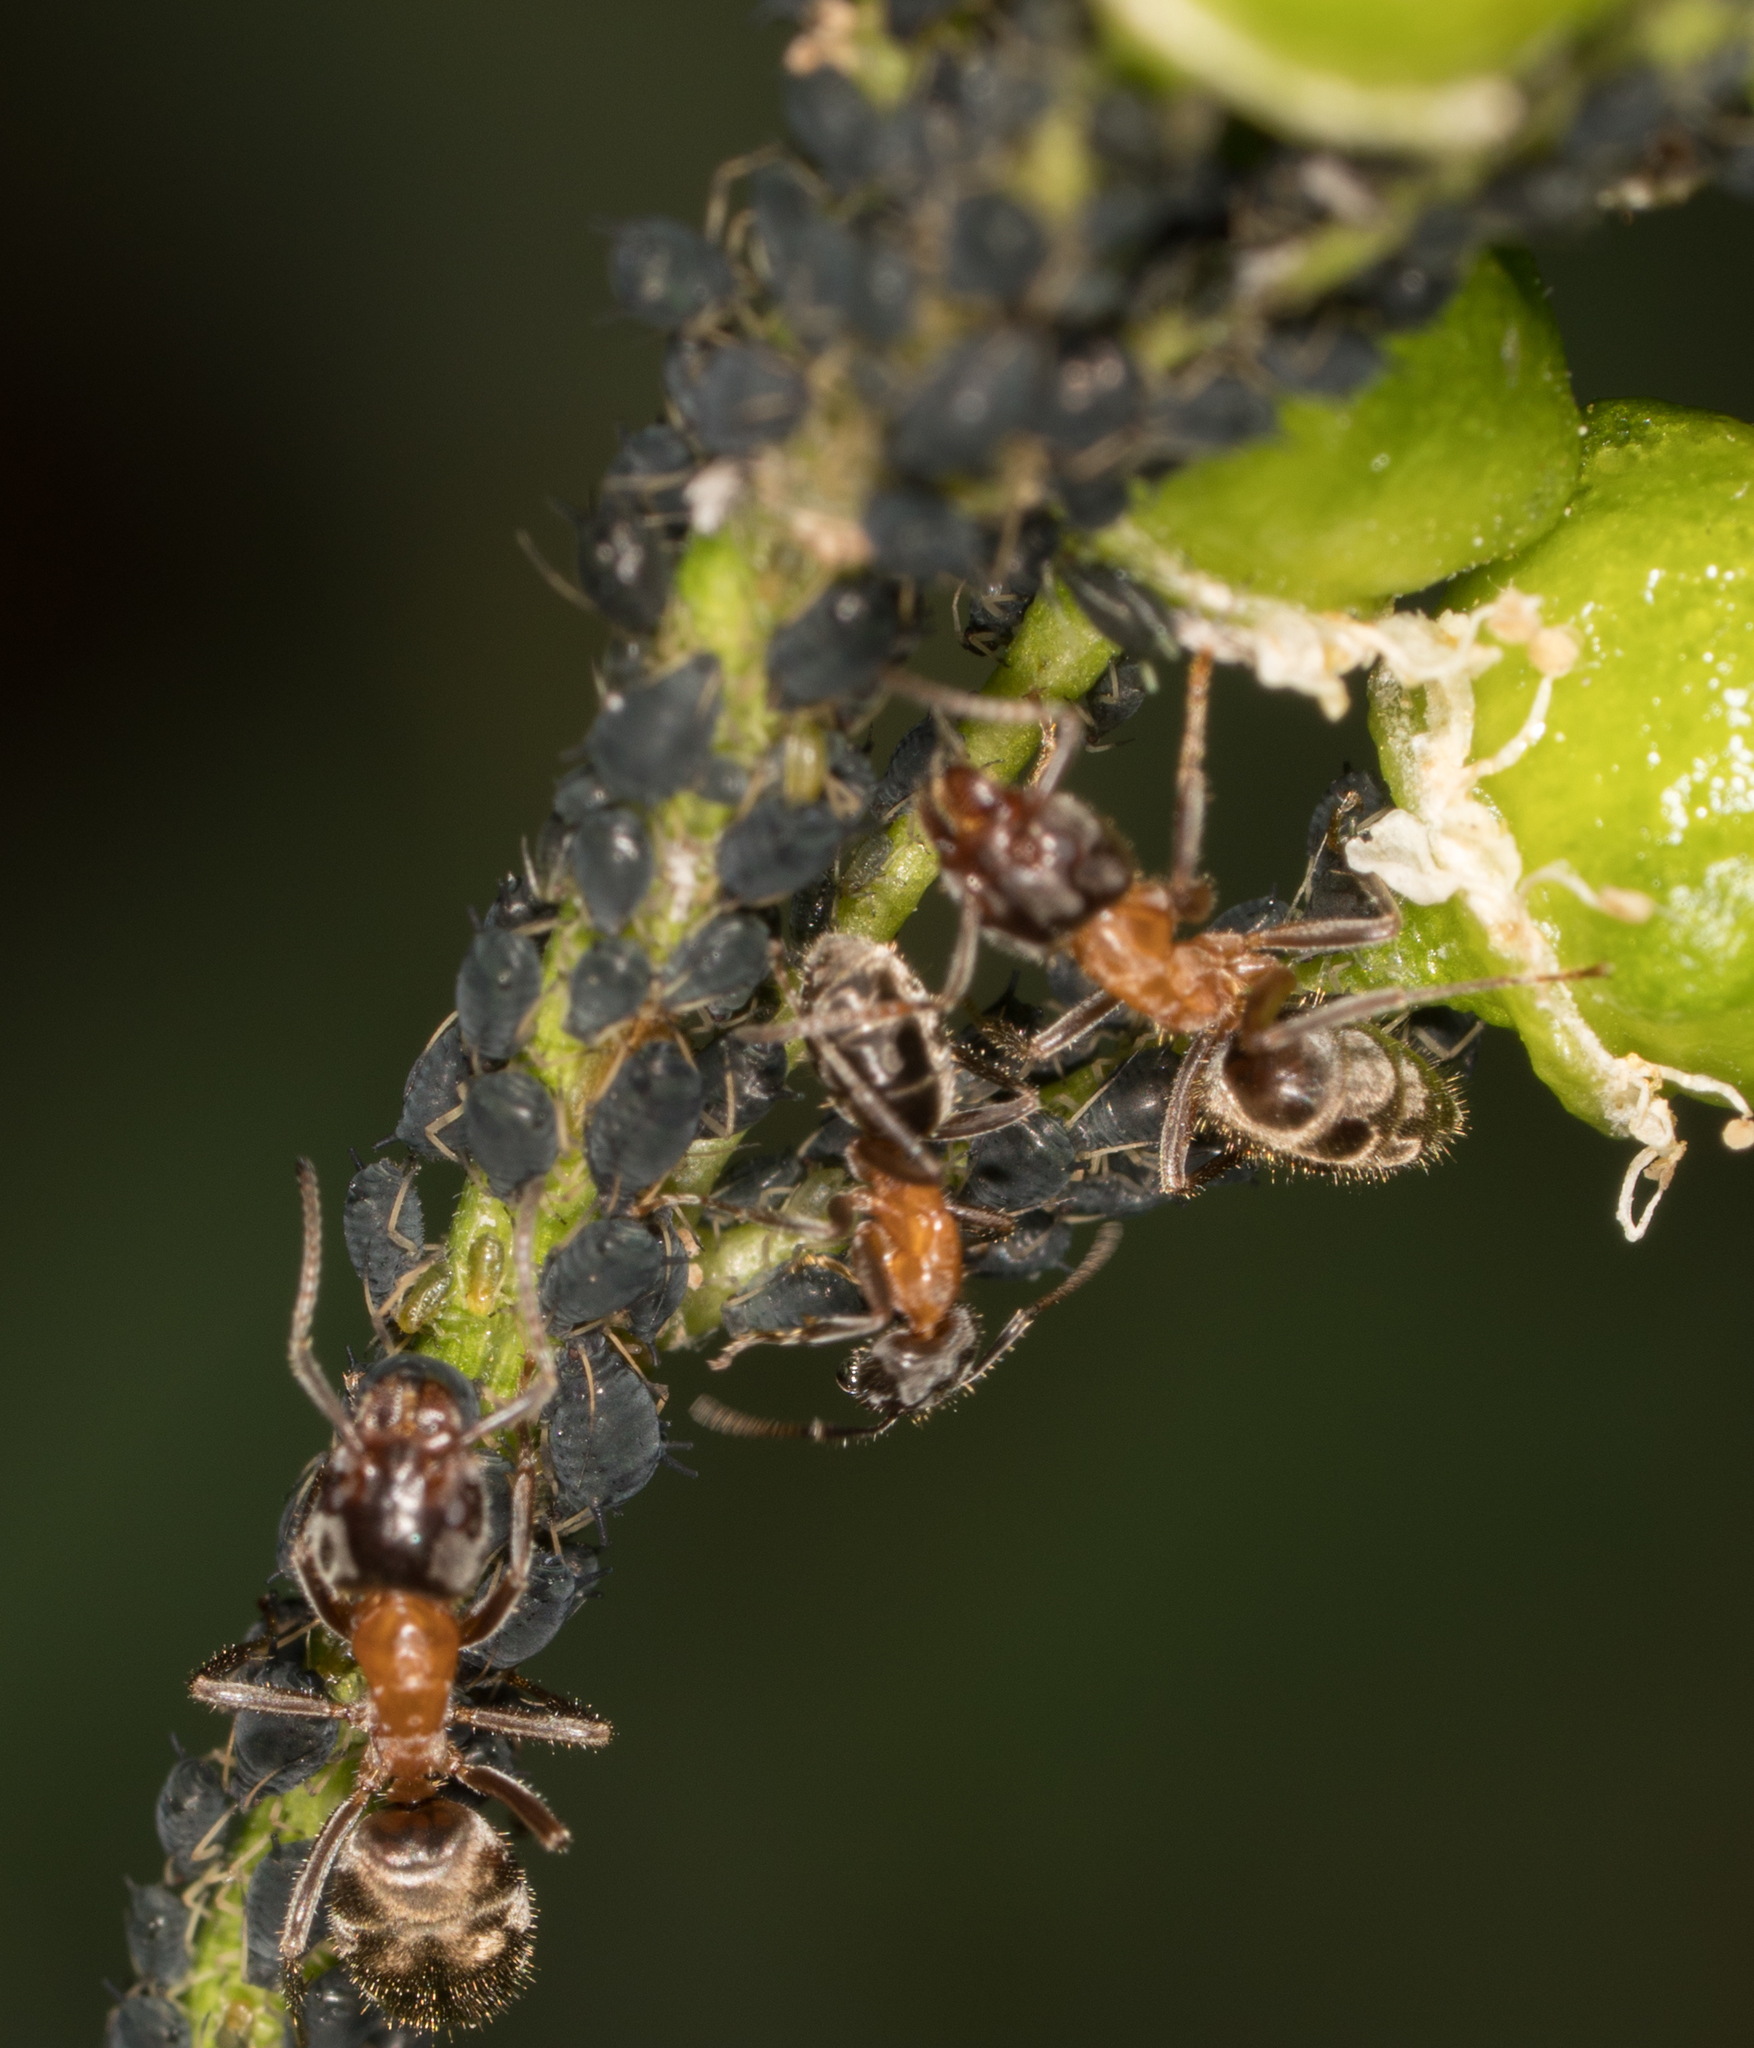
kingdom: Animalia
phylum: Arthropoda
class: Insecta
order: Hymenoptera
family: Formicidae
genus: Liometopum
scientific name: Liometopum occidentale
